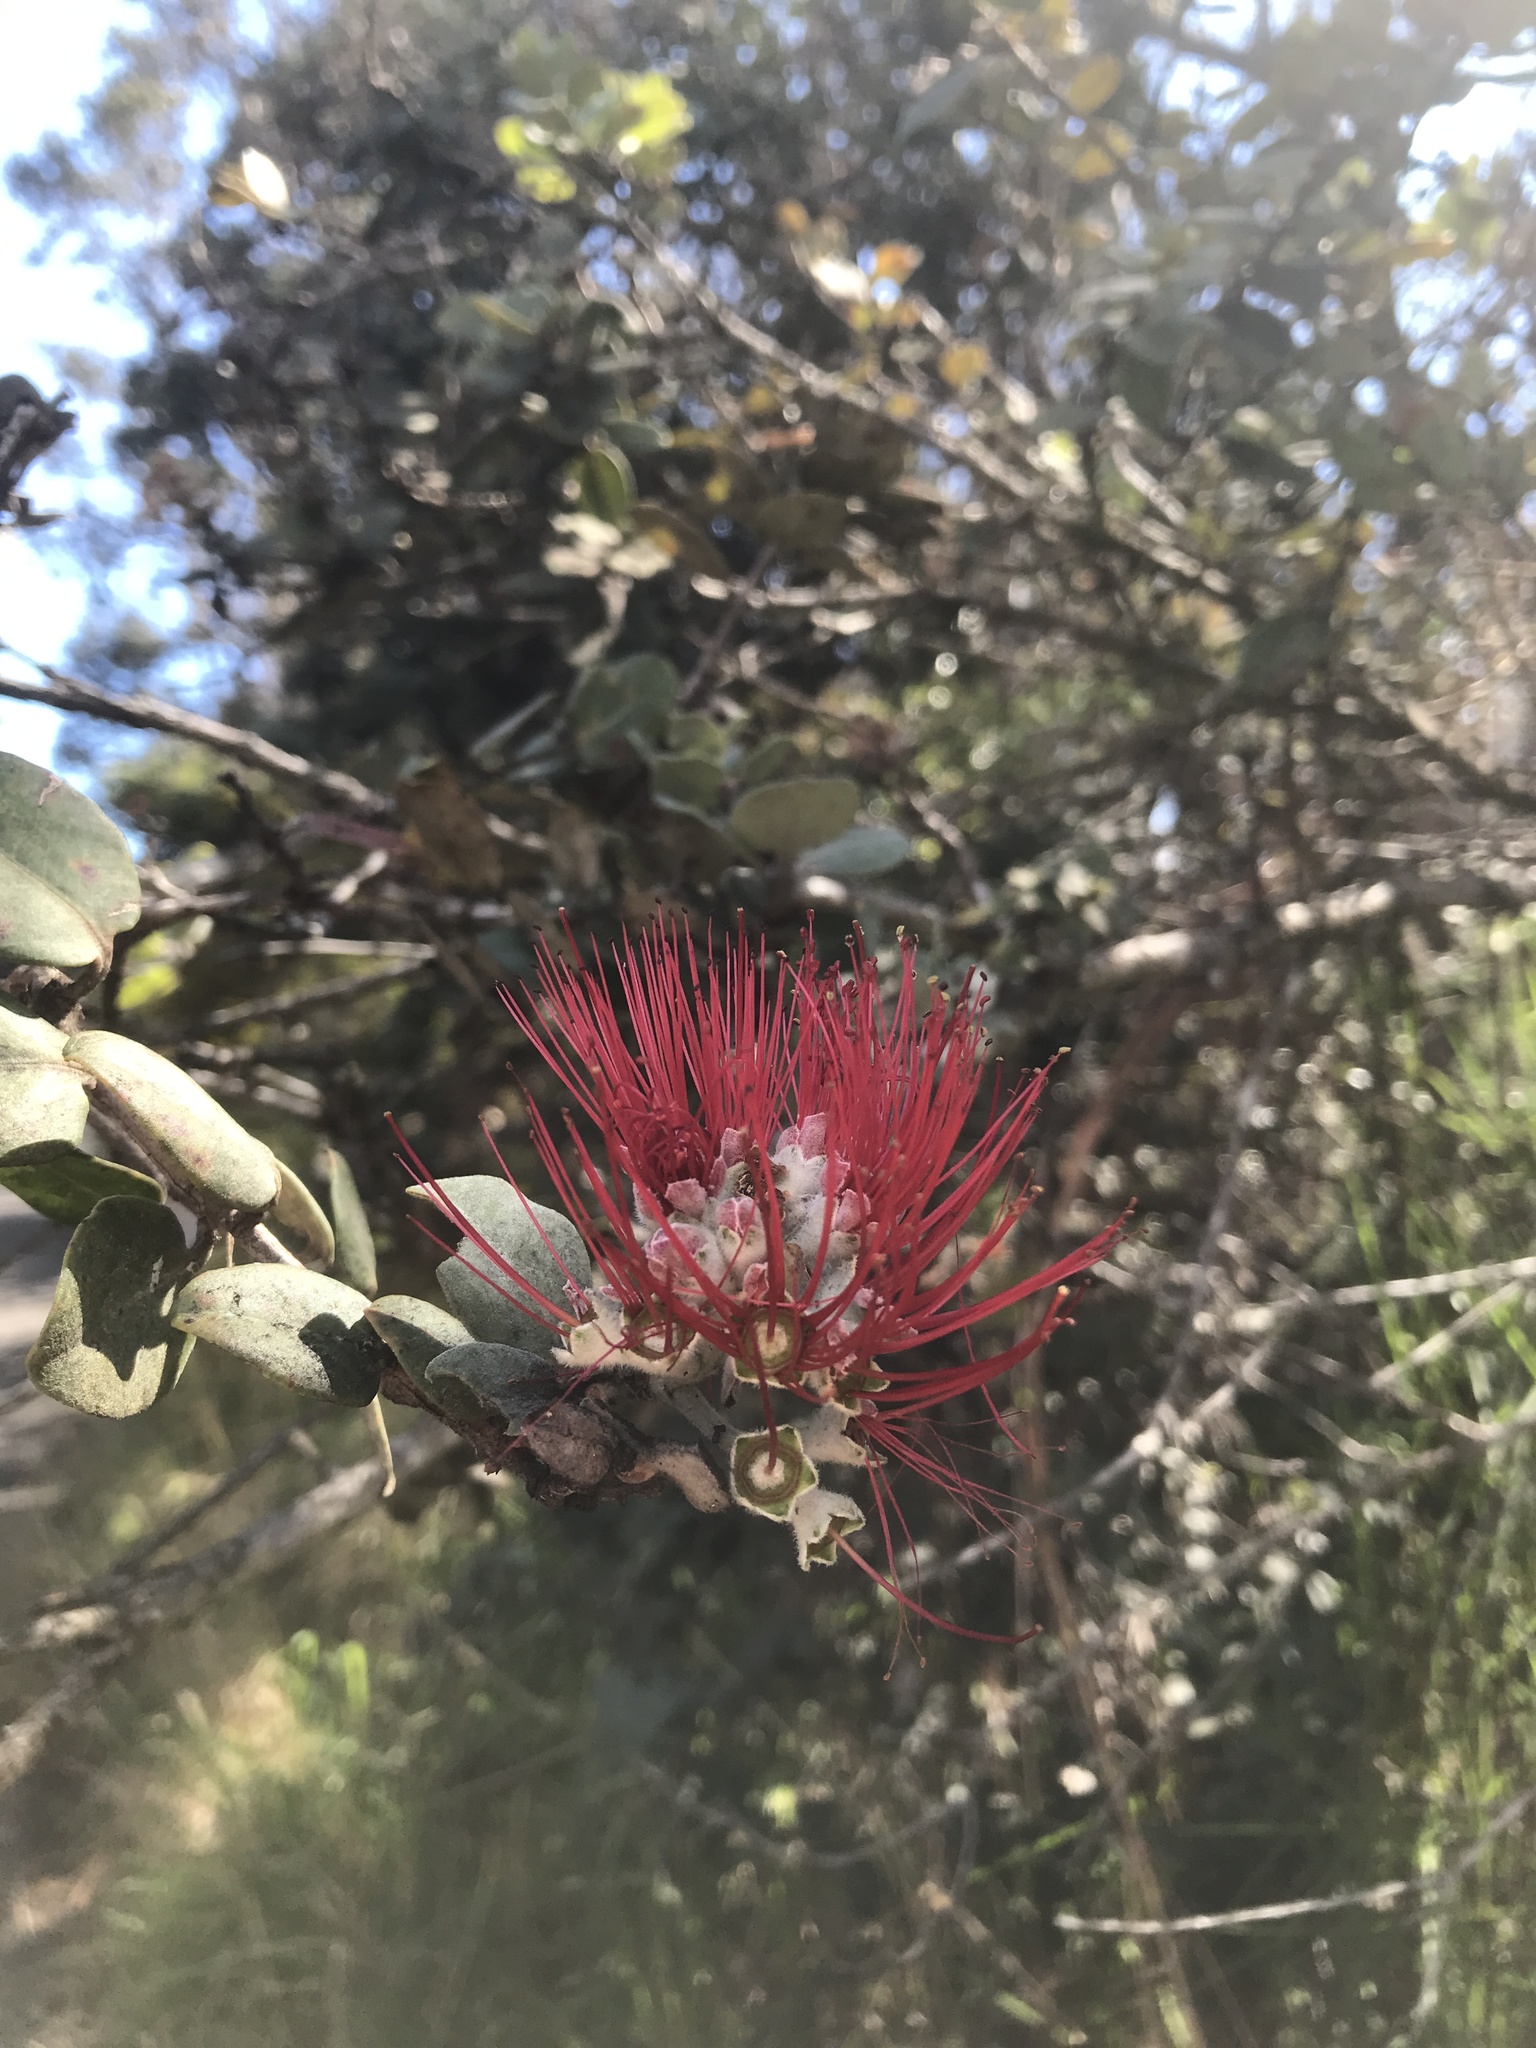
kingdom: Plantae
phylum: Tracheophyta
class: Magnoliopsida
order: Myrtales
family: Myrtaceae
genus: Metrosideros
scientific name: Metrosideros polymorpha
